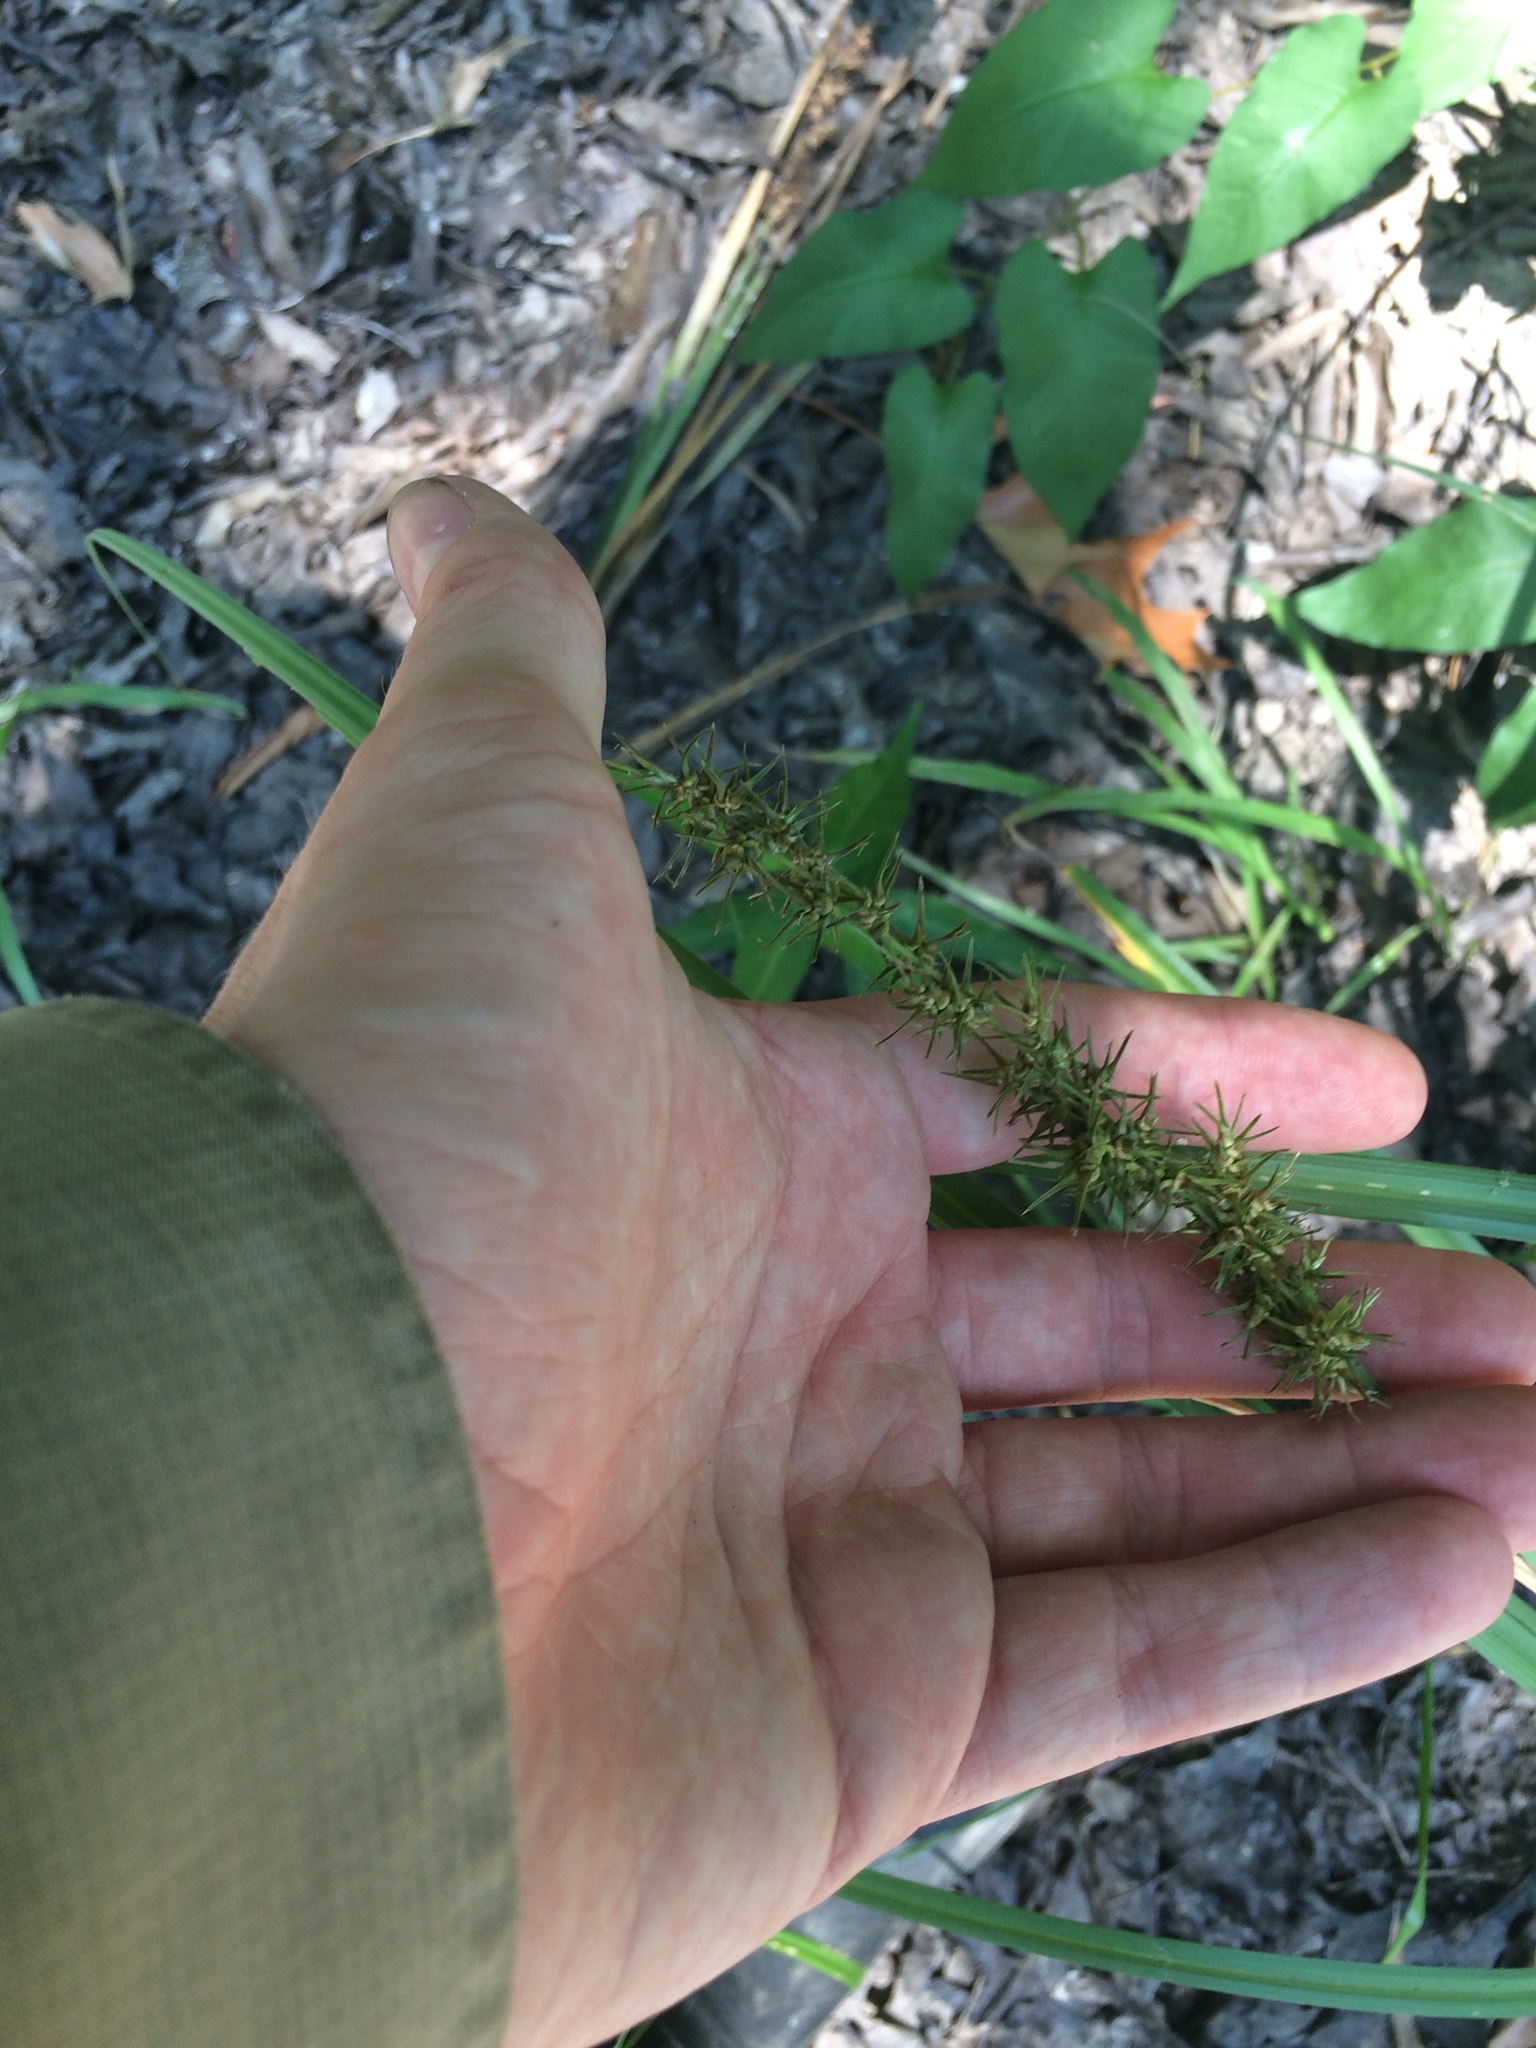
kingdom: Plantae
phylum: Tracheophyta
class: Liliopsida
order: Poales
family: Cyperaceae
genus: Carex
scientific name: Carex crus-corvi
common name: Crow-spur sedge
